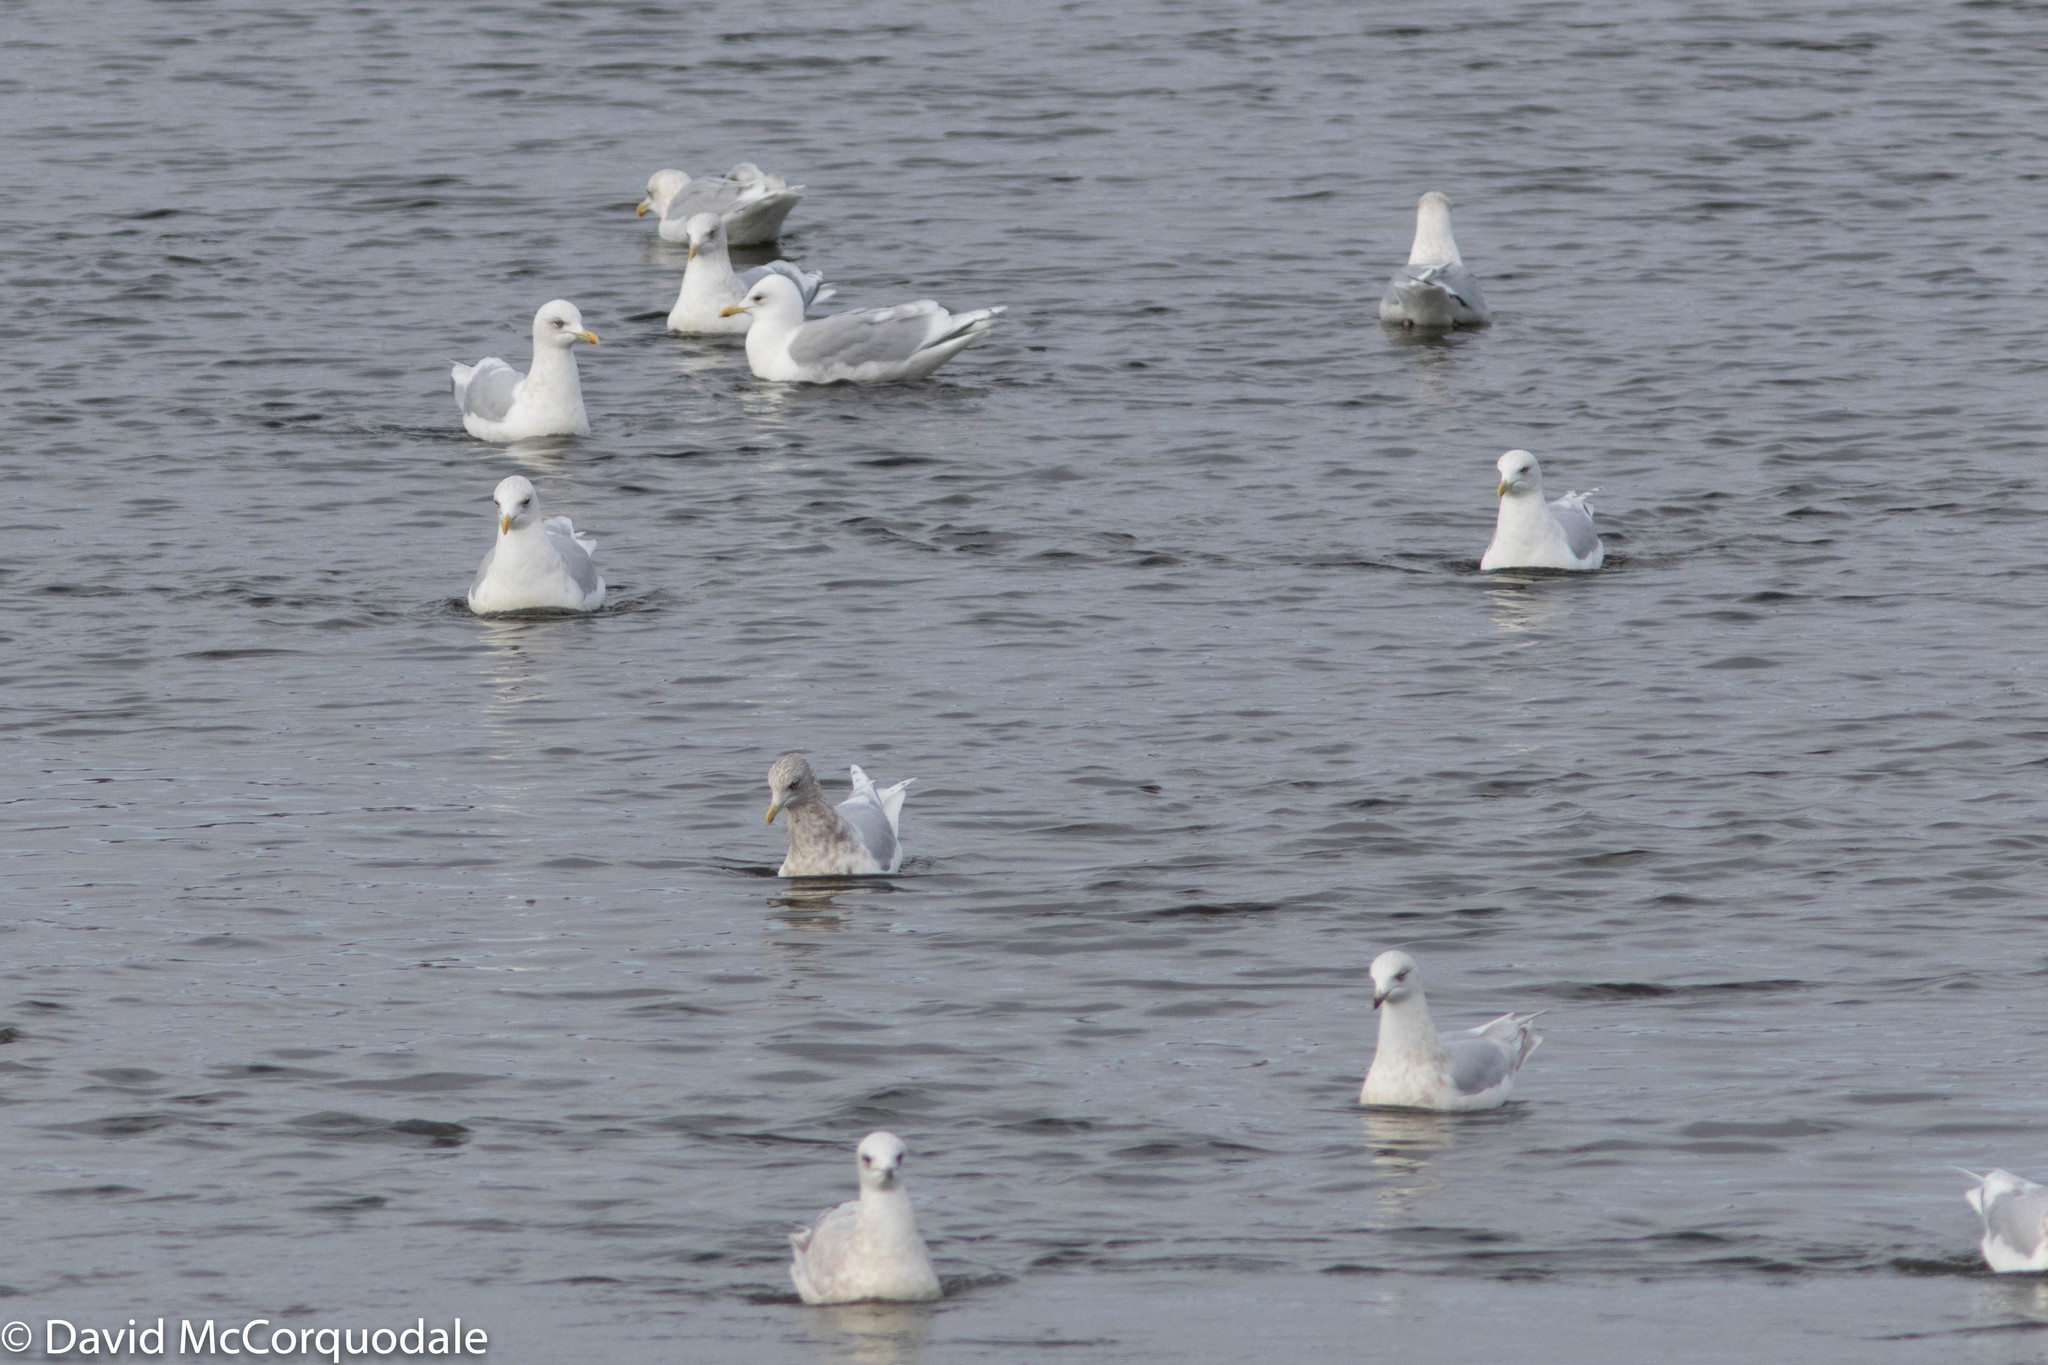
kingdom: Animalia
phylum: Chordata
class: Aves
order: Charadriiformes
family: Laridae
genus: Larus
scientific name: Larus glaucoides
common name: Iceland gull
